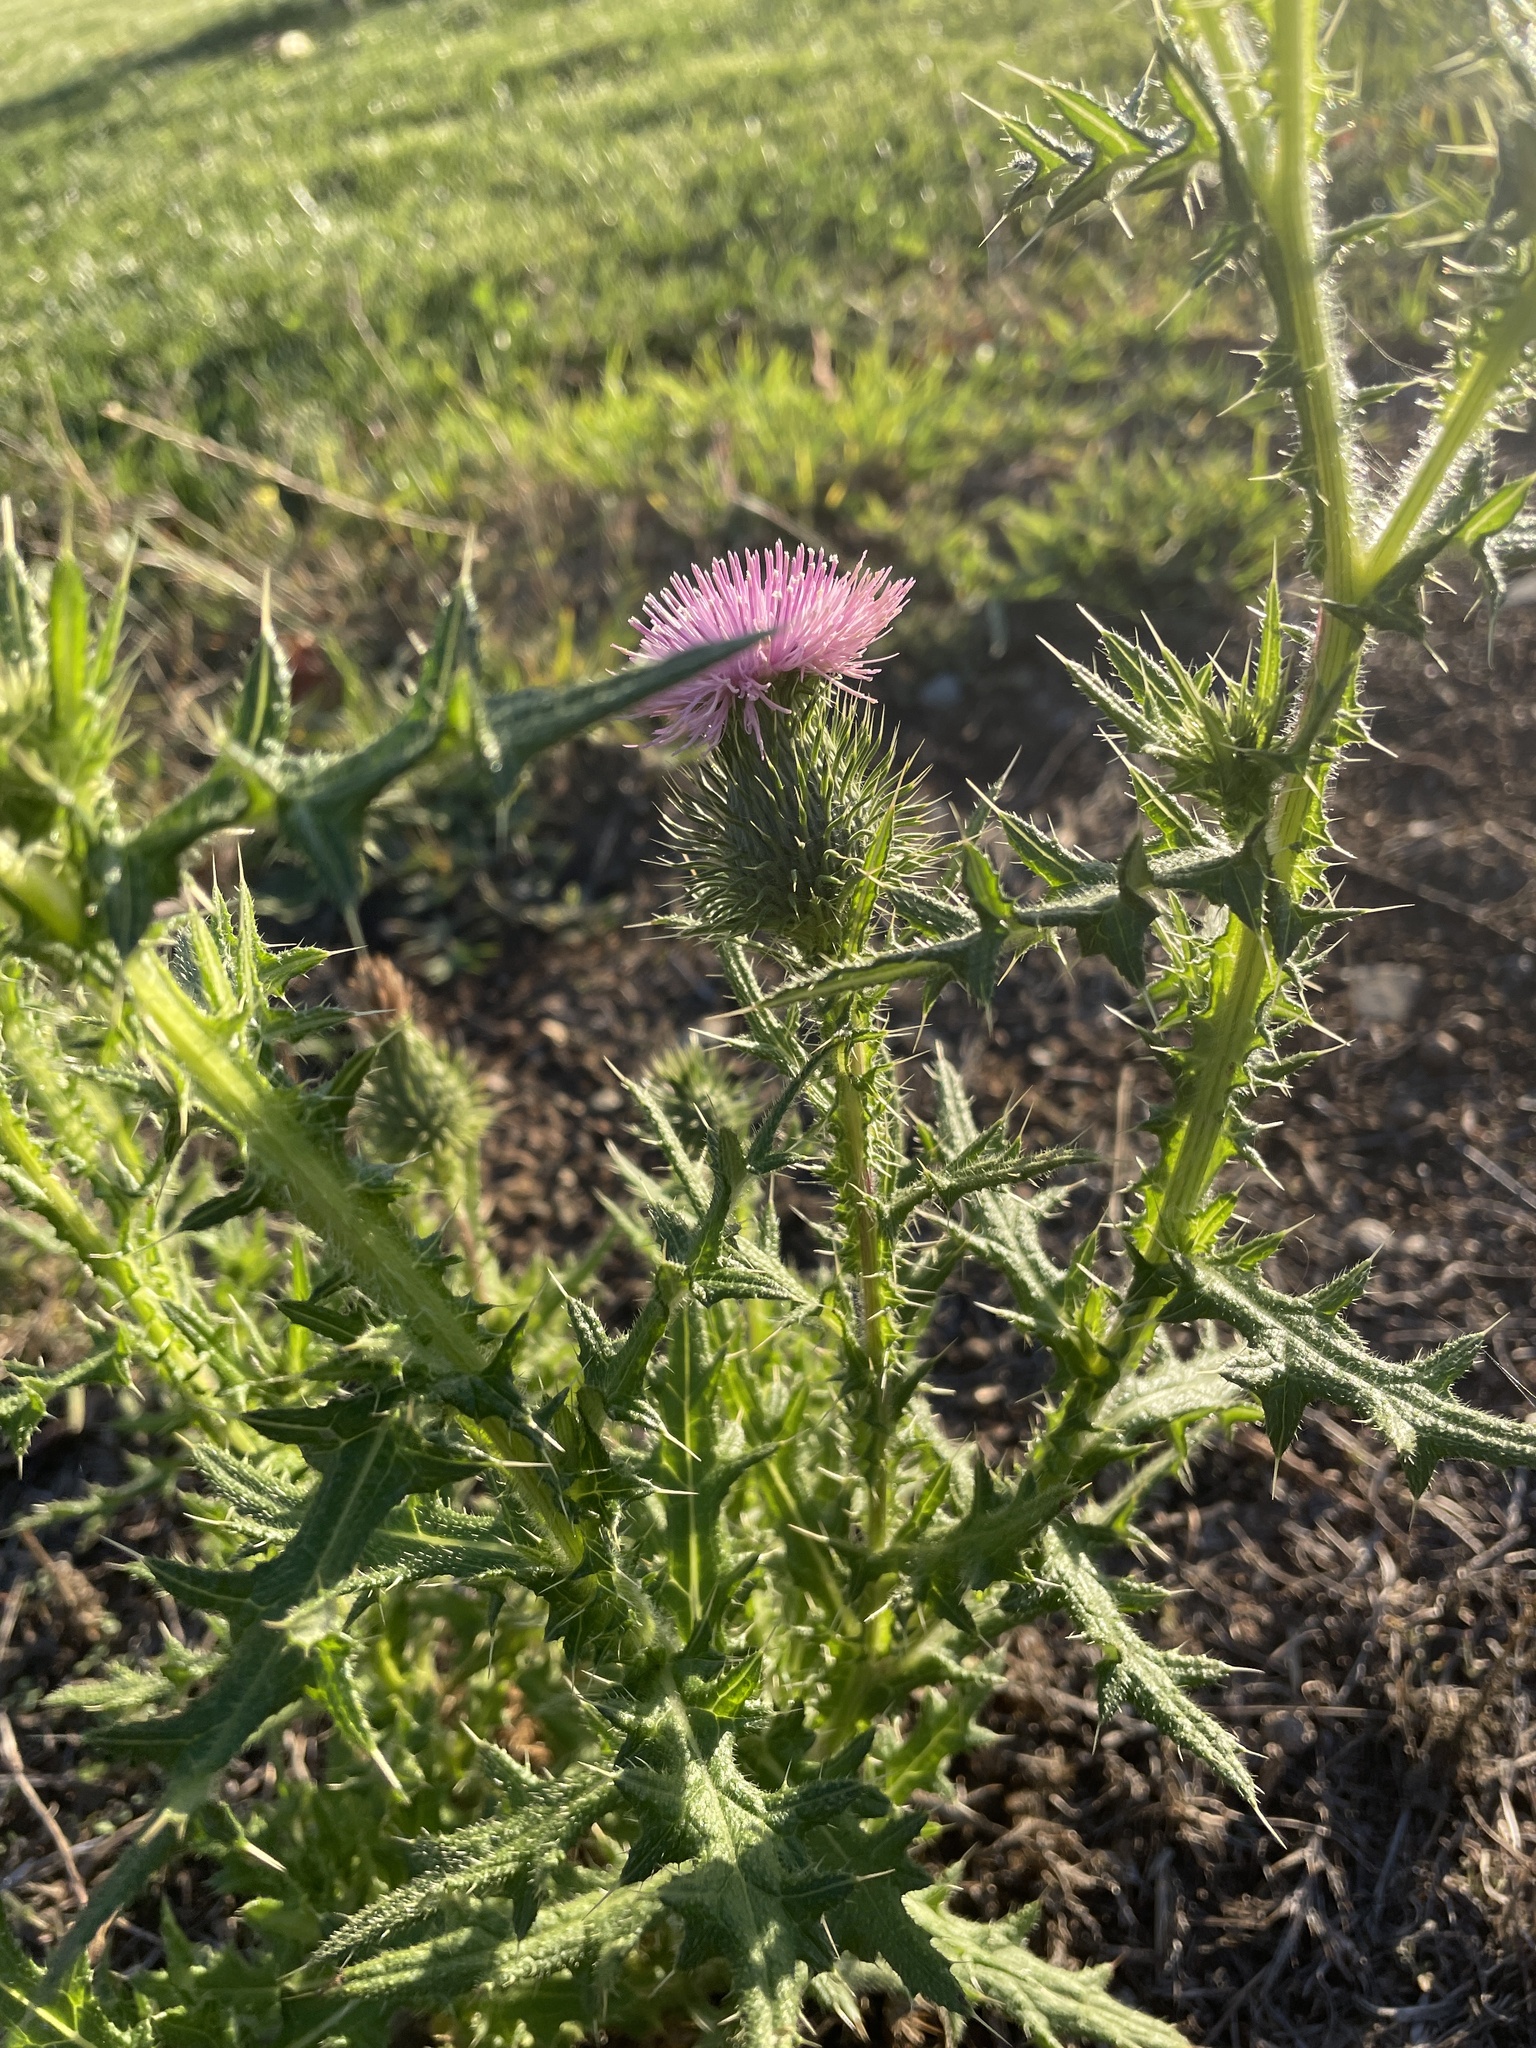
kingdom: Plantae
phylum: Tracheophyta
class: Magnoliopsida
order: Asterales
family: Asteraceae
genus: Cirsium
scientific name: Cirsium vulgare
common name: Bull thistle
